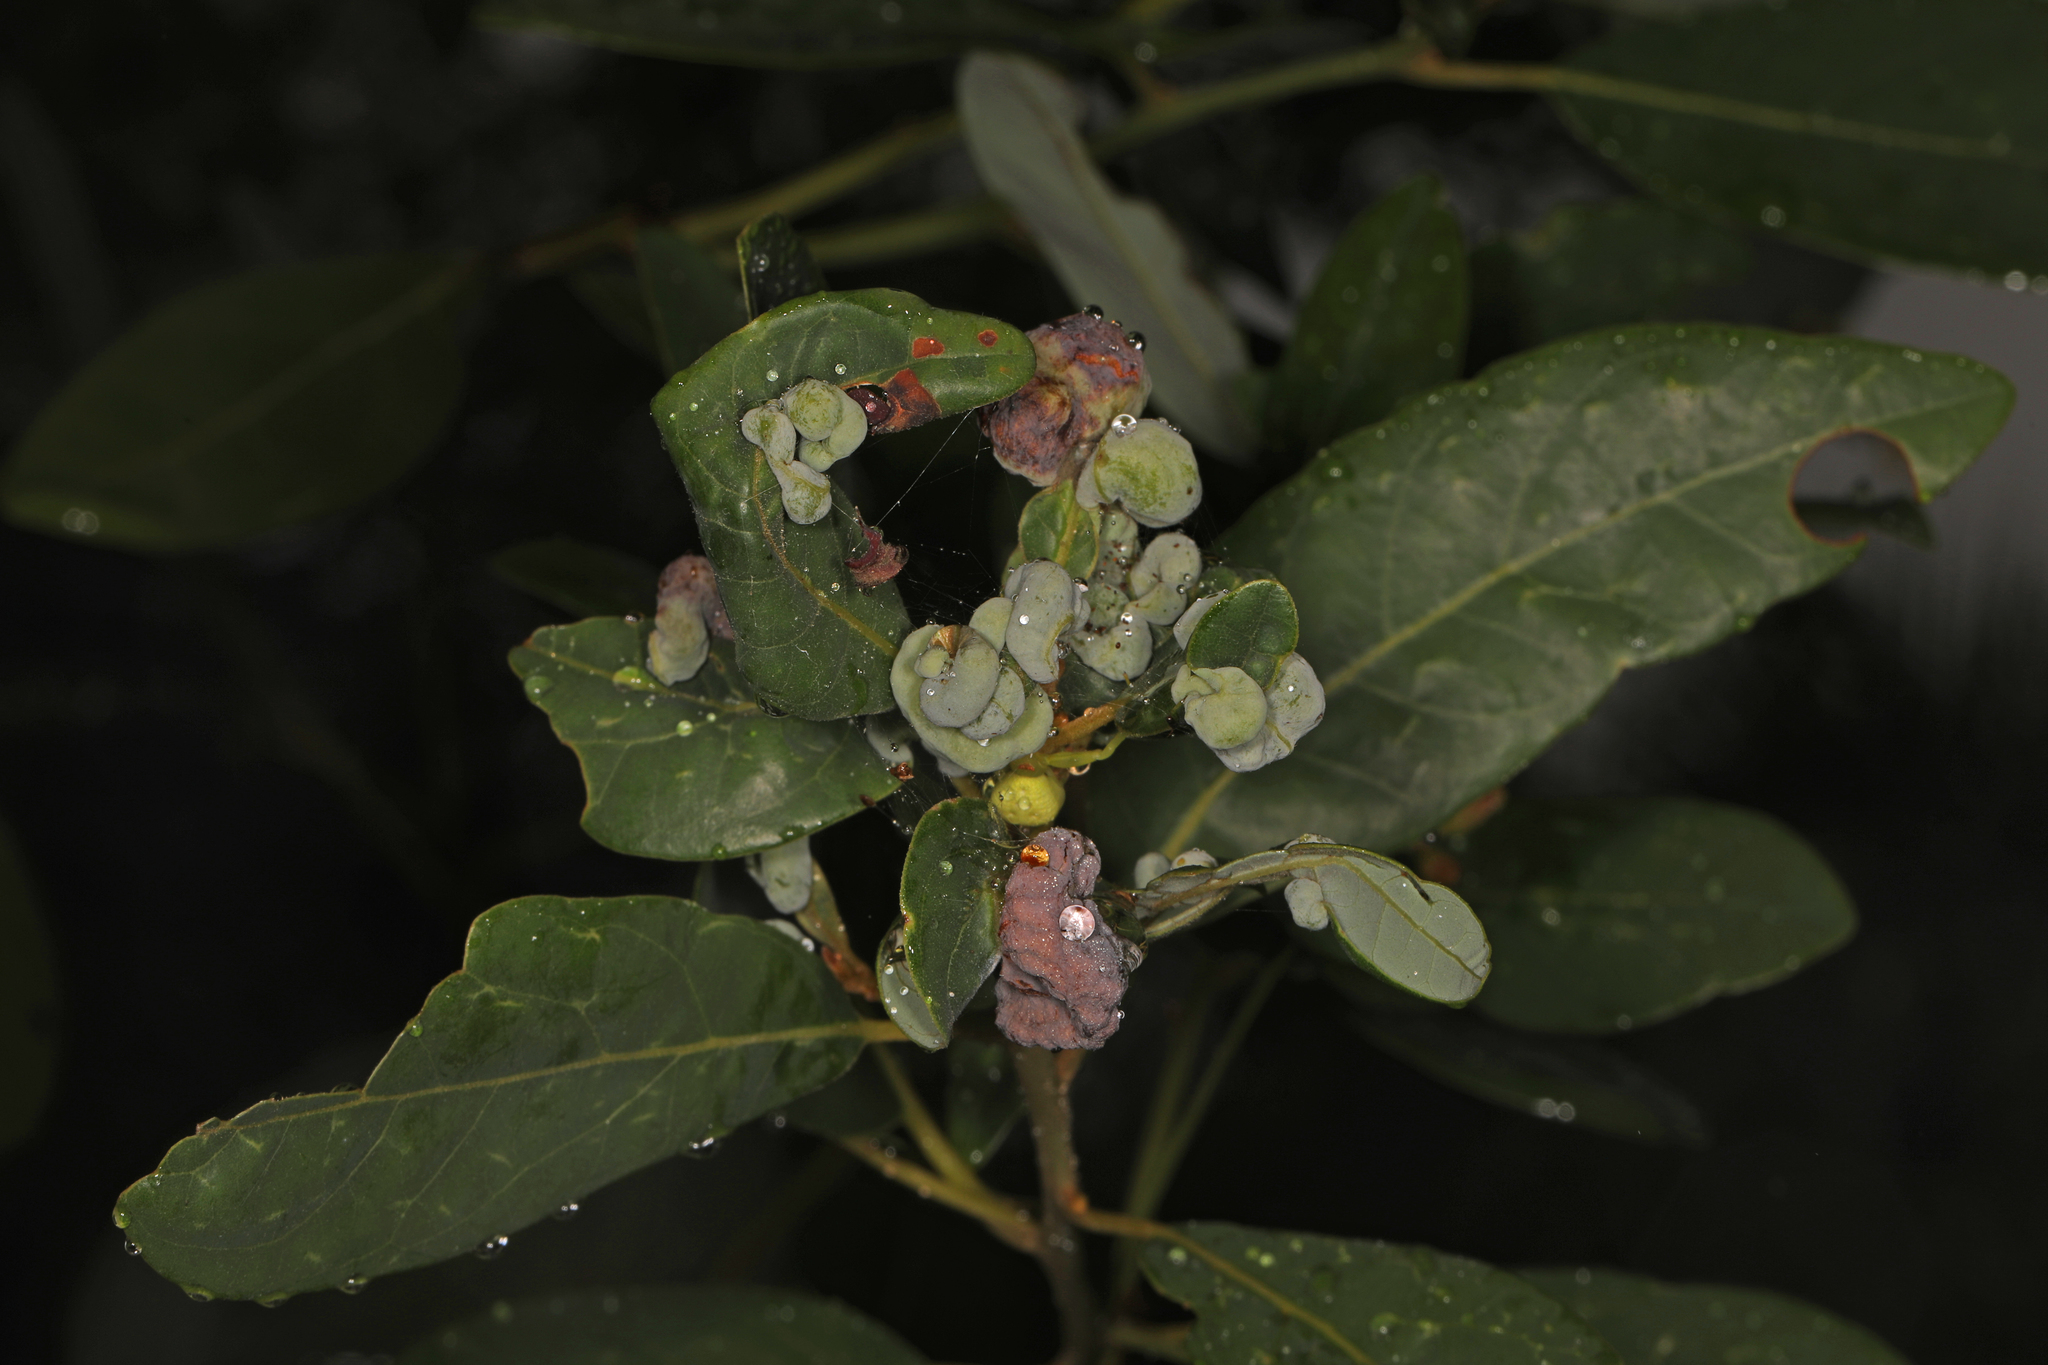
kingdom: Animalia
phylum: Arthropoda
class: Insecta
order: Hemiptera
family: Triozidae
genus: Trioza
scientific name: Trioza magnoliae
